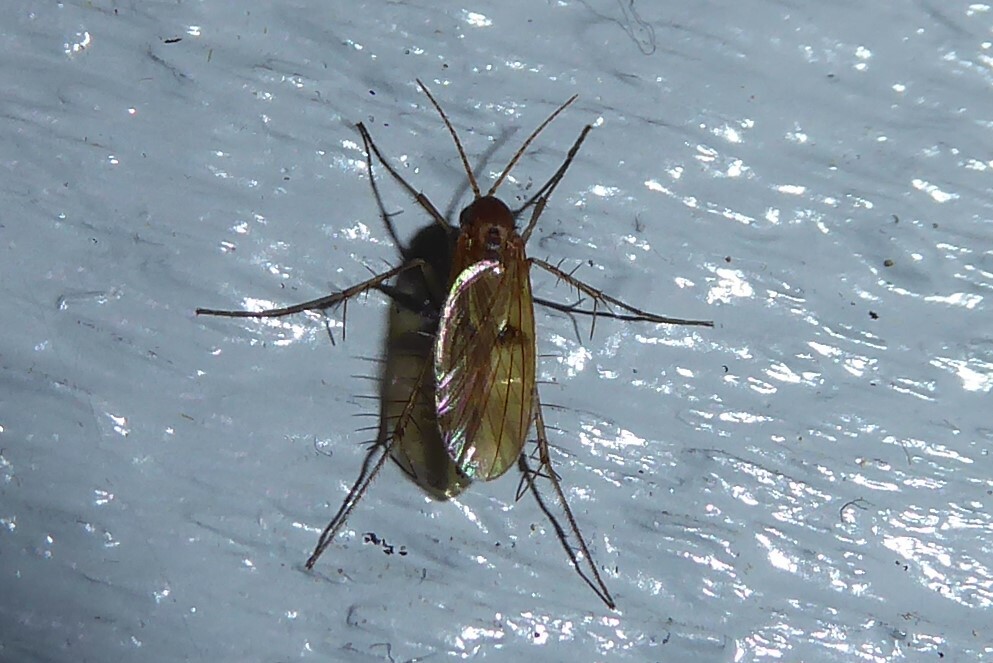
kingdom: Animalia
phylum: Arthropoda
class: Insecta
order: Diptera
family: Mycetophilidae
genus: Mycetophila
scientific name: Mycetophila fagi
